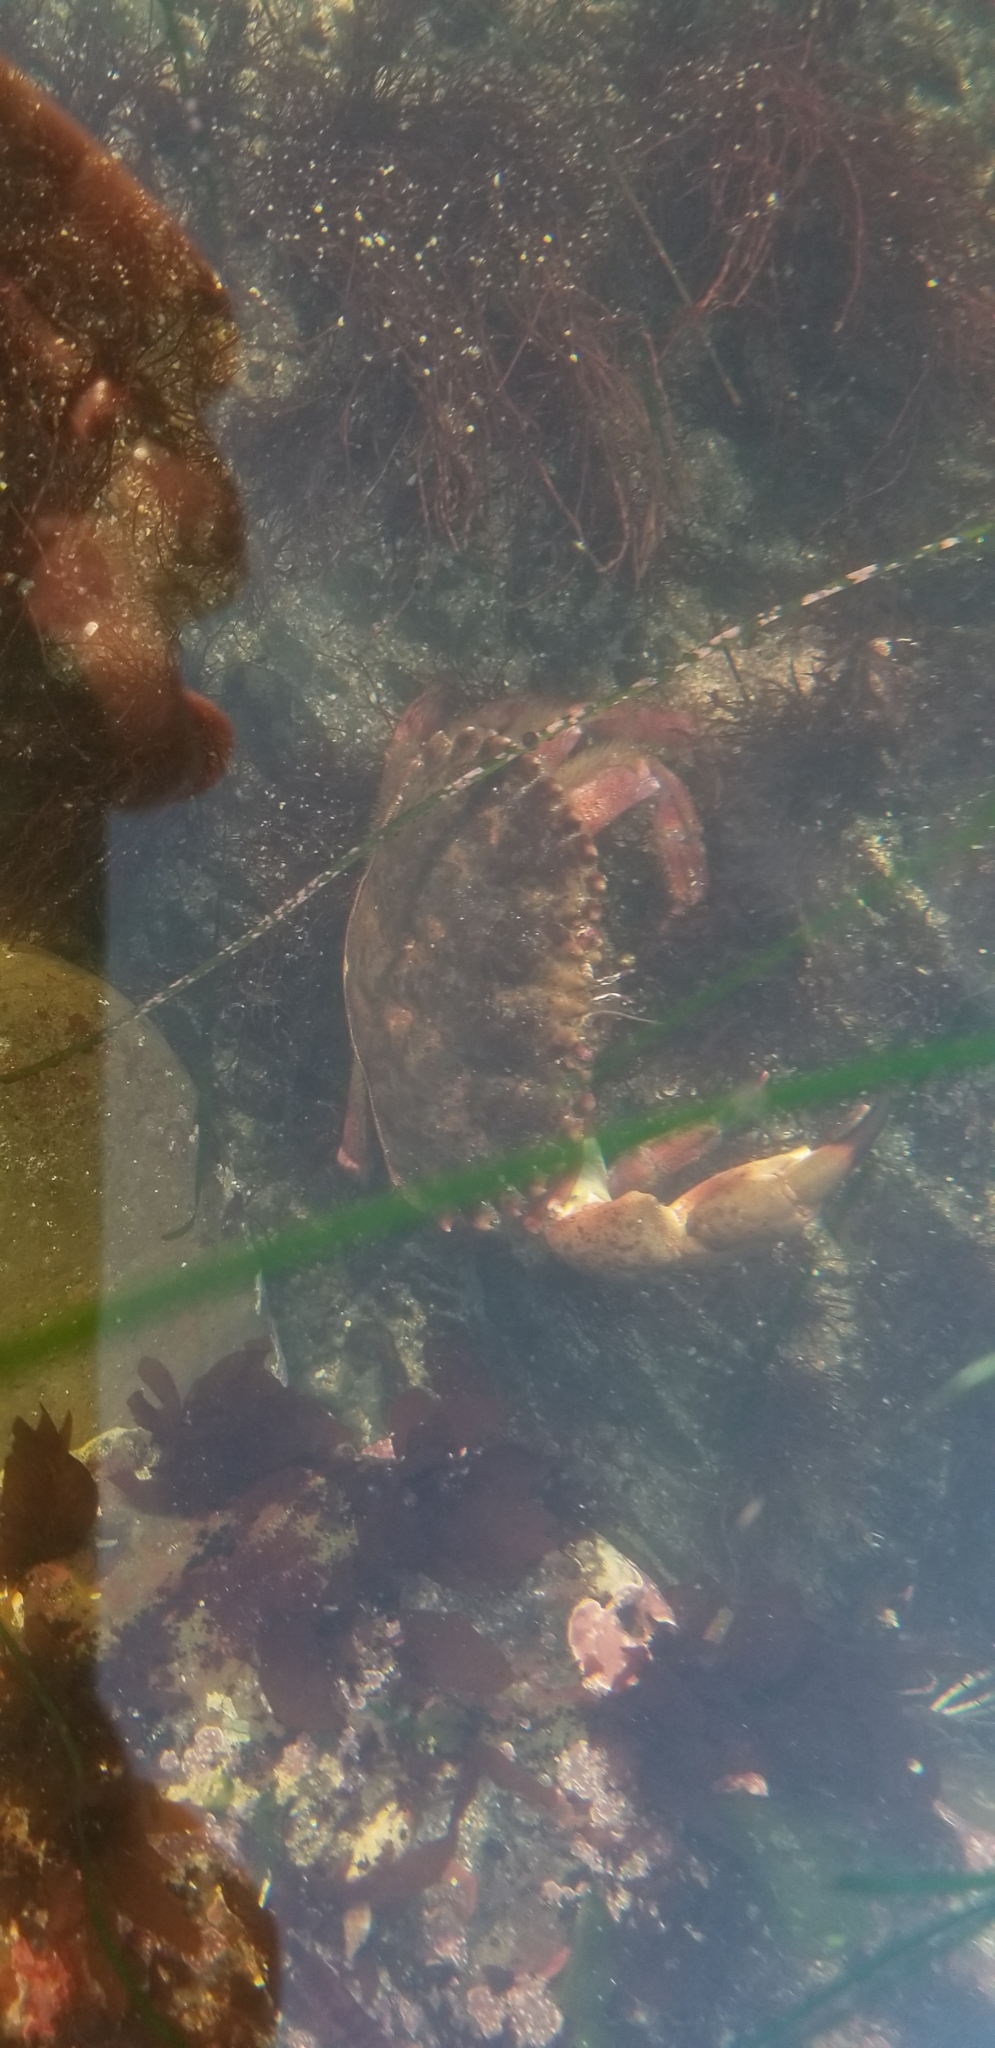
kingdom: Animalia
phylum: Arthropoda
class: Malacostraca
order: Decapoda
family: Cancridae
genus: Romaleon
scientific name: Romaleon antennarium
